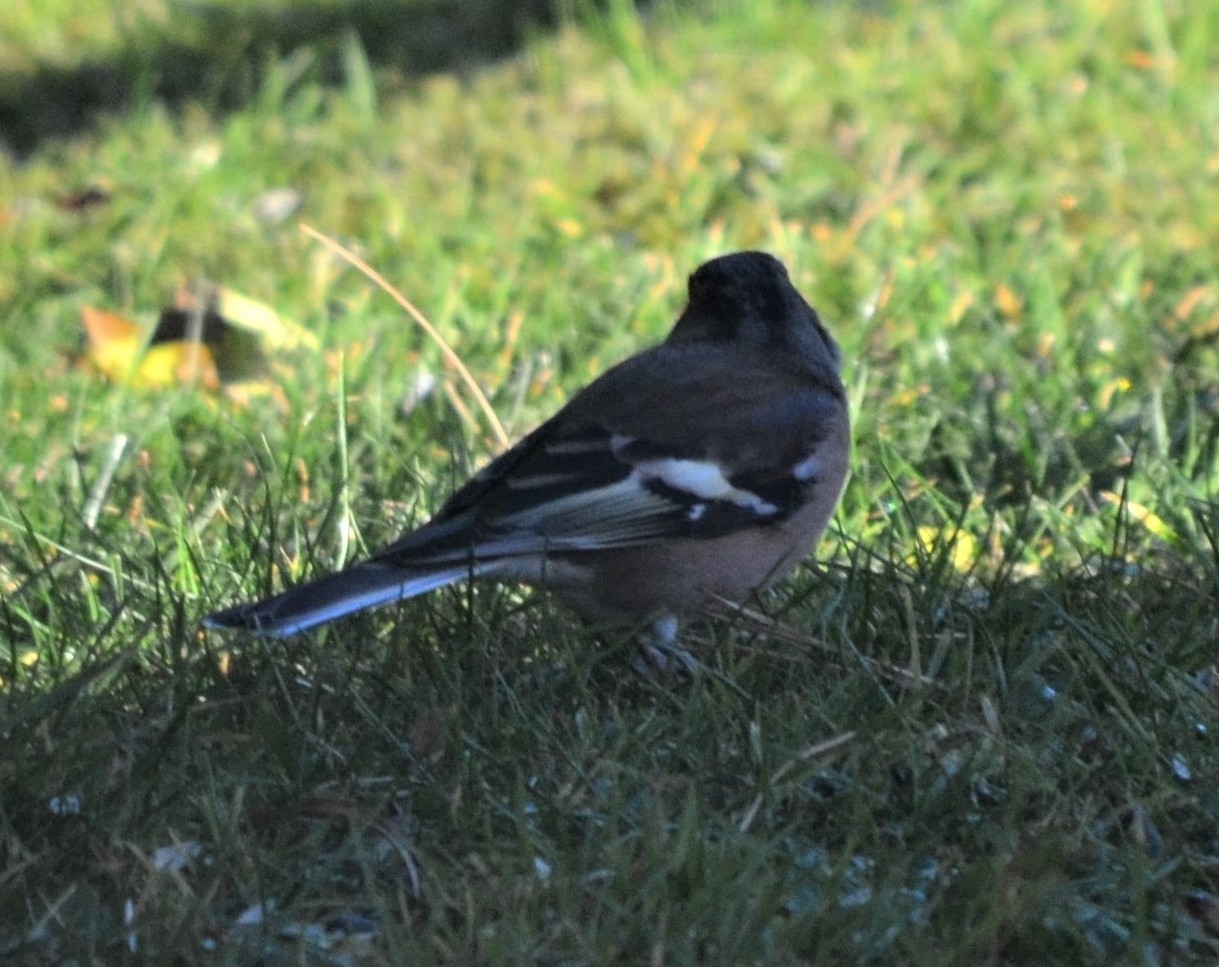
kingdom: Animalia
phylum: Chordata
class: Aves
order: Passeriformes
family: Fringillidae
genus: Fringilla
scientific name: Fringilla coelebs
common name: Common chaffinch
